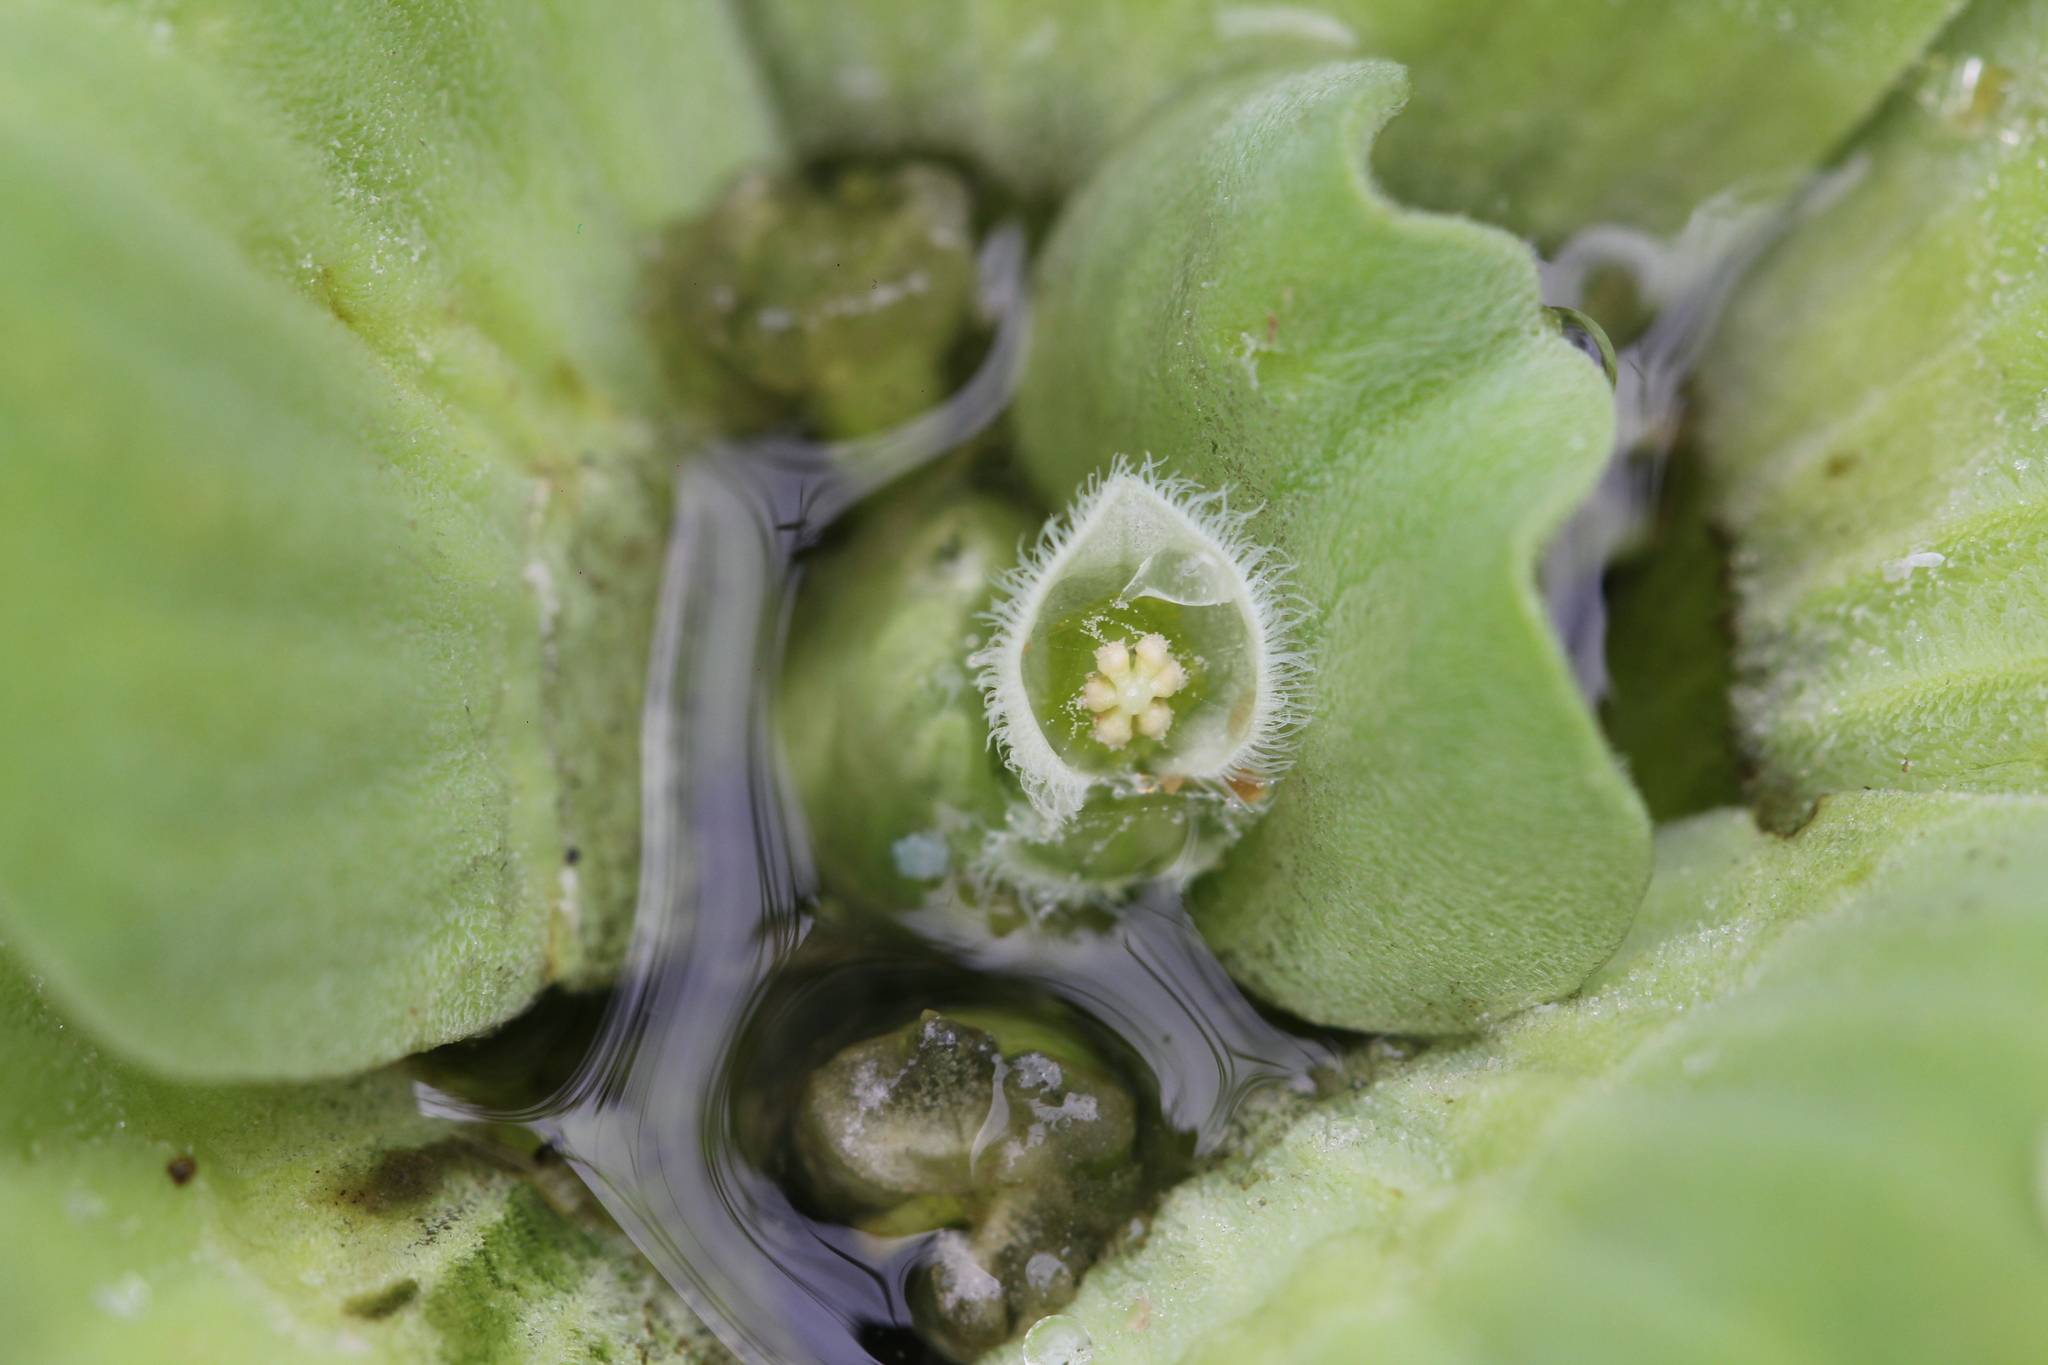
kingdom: Plantae
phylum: Tracheophyta
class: Liliopsida
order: Alismatales
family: Araceae
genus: Pistia
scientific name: Pistia stratiotes
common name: Water lettuce
